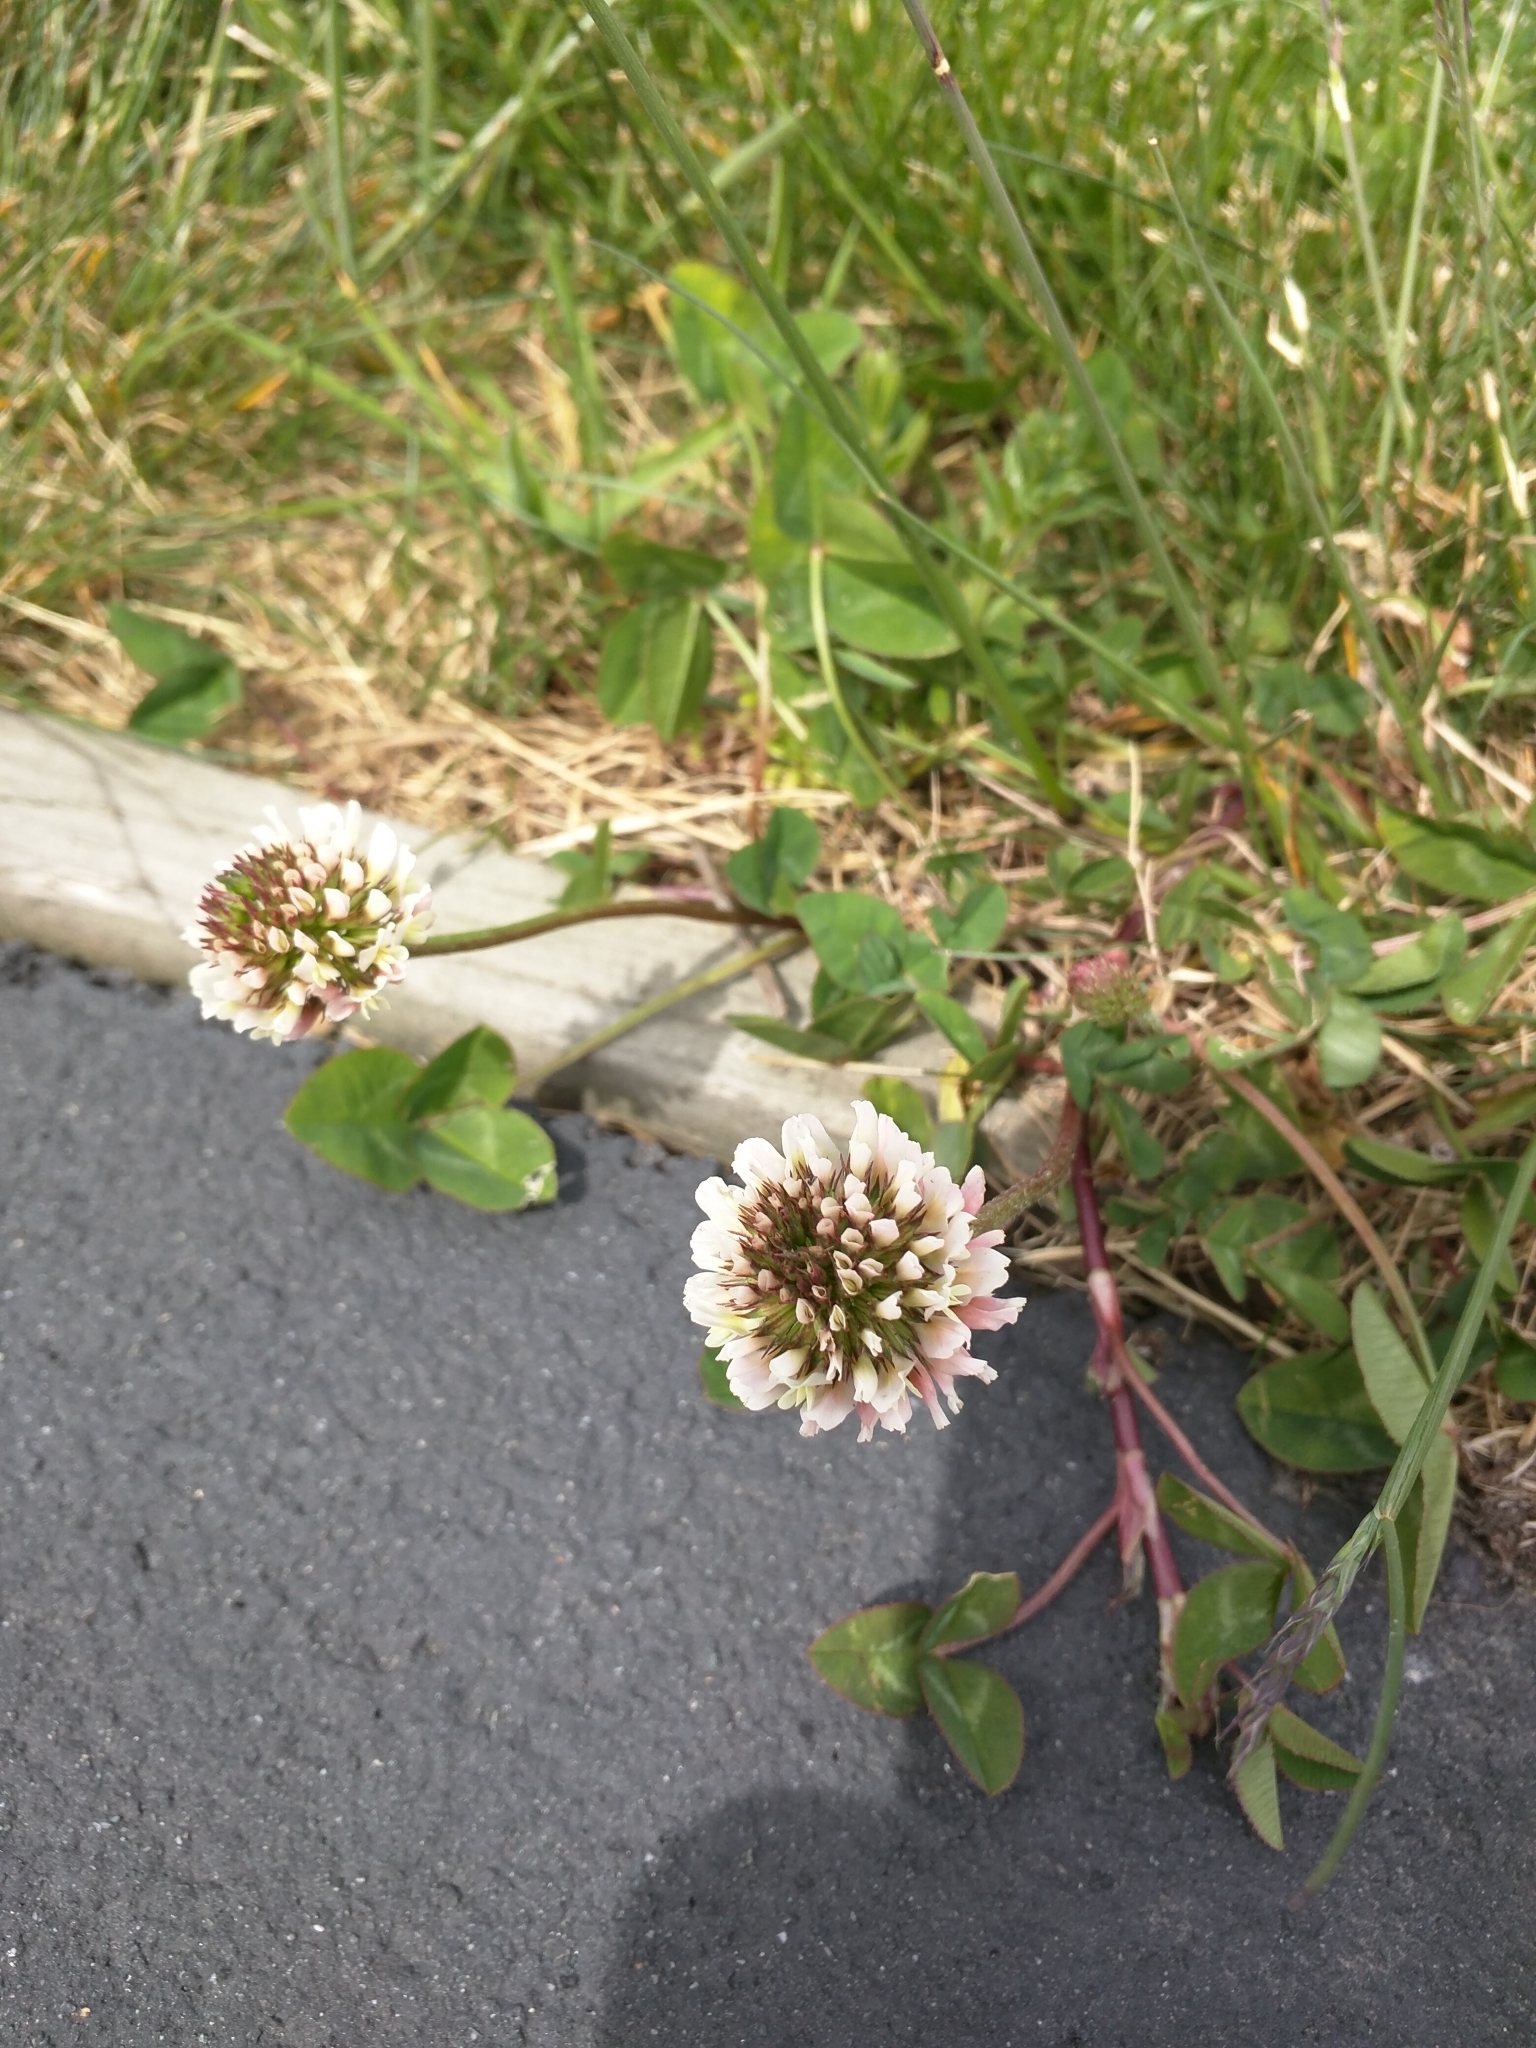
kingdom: Plantae
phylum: Tracheophyta
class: Magnoliopsida
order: Fabales
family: Fabaceae
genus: Trifolium
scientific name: Trifolium repens
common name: White clover
